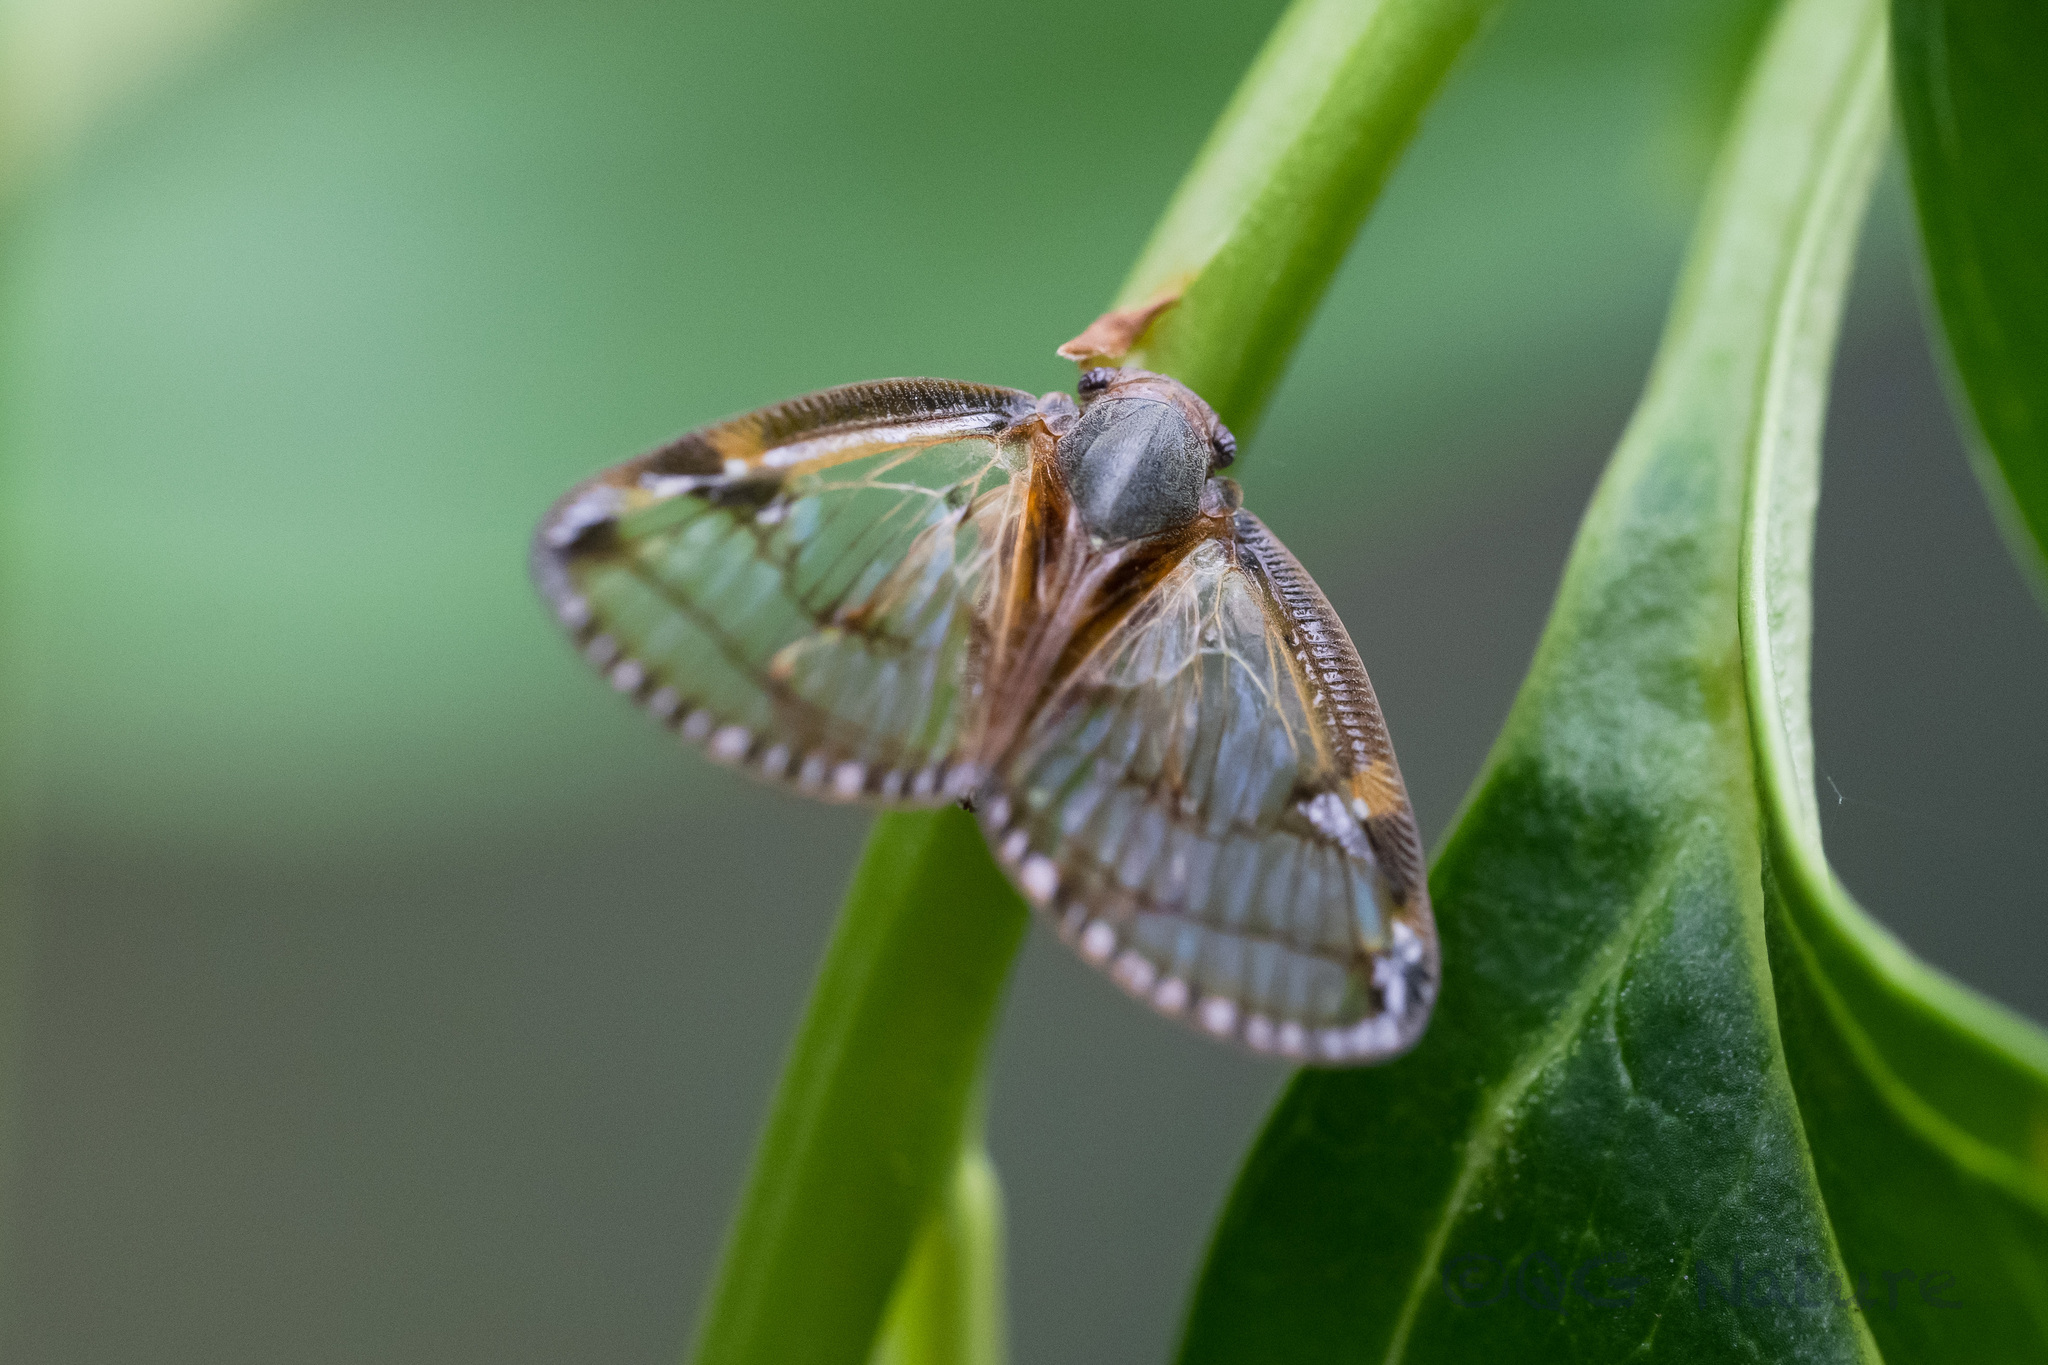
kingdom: Animalia
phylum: Arthropoda
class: Insecta
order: Hemiptera
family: Ricaniidae
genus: Euricania
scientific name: Euricania facialis
